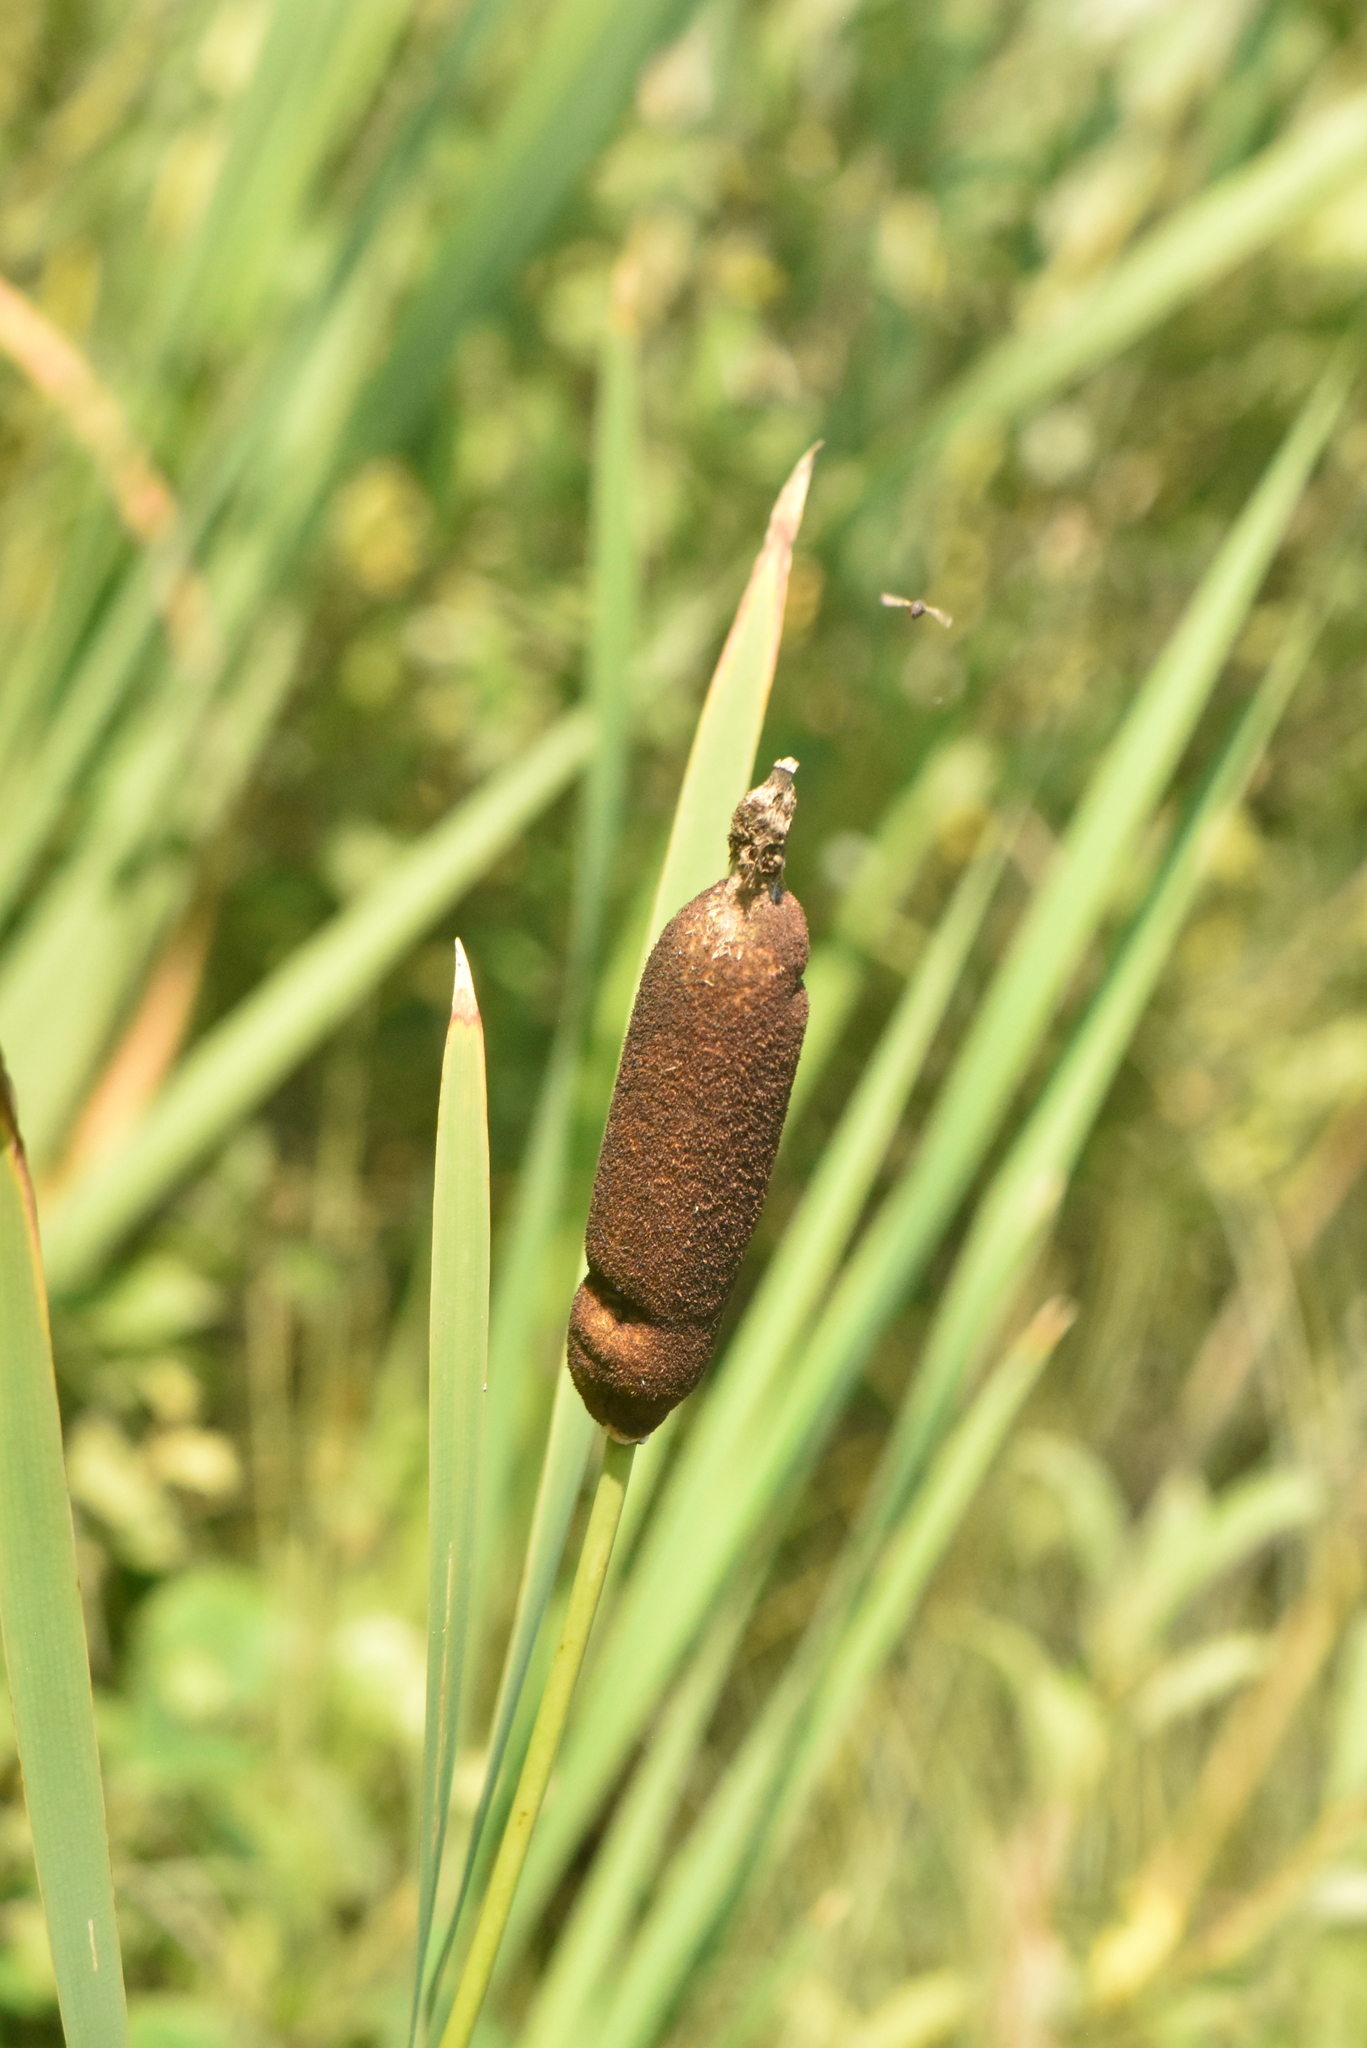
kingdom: Plantae
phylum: Tracheophyta
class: Liliopsida
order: Poales
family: Typhaceae
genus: Typha
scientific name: Typha latifolia
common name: Broadleaf cattail
